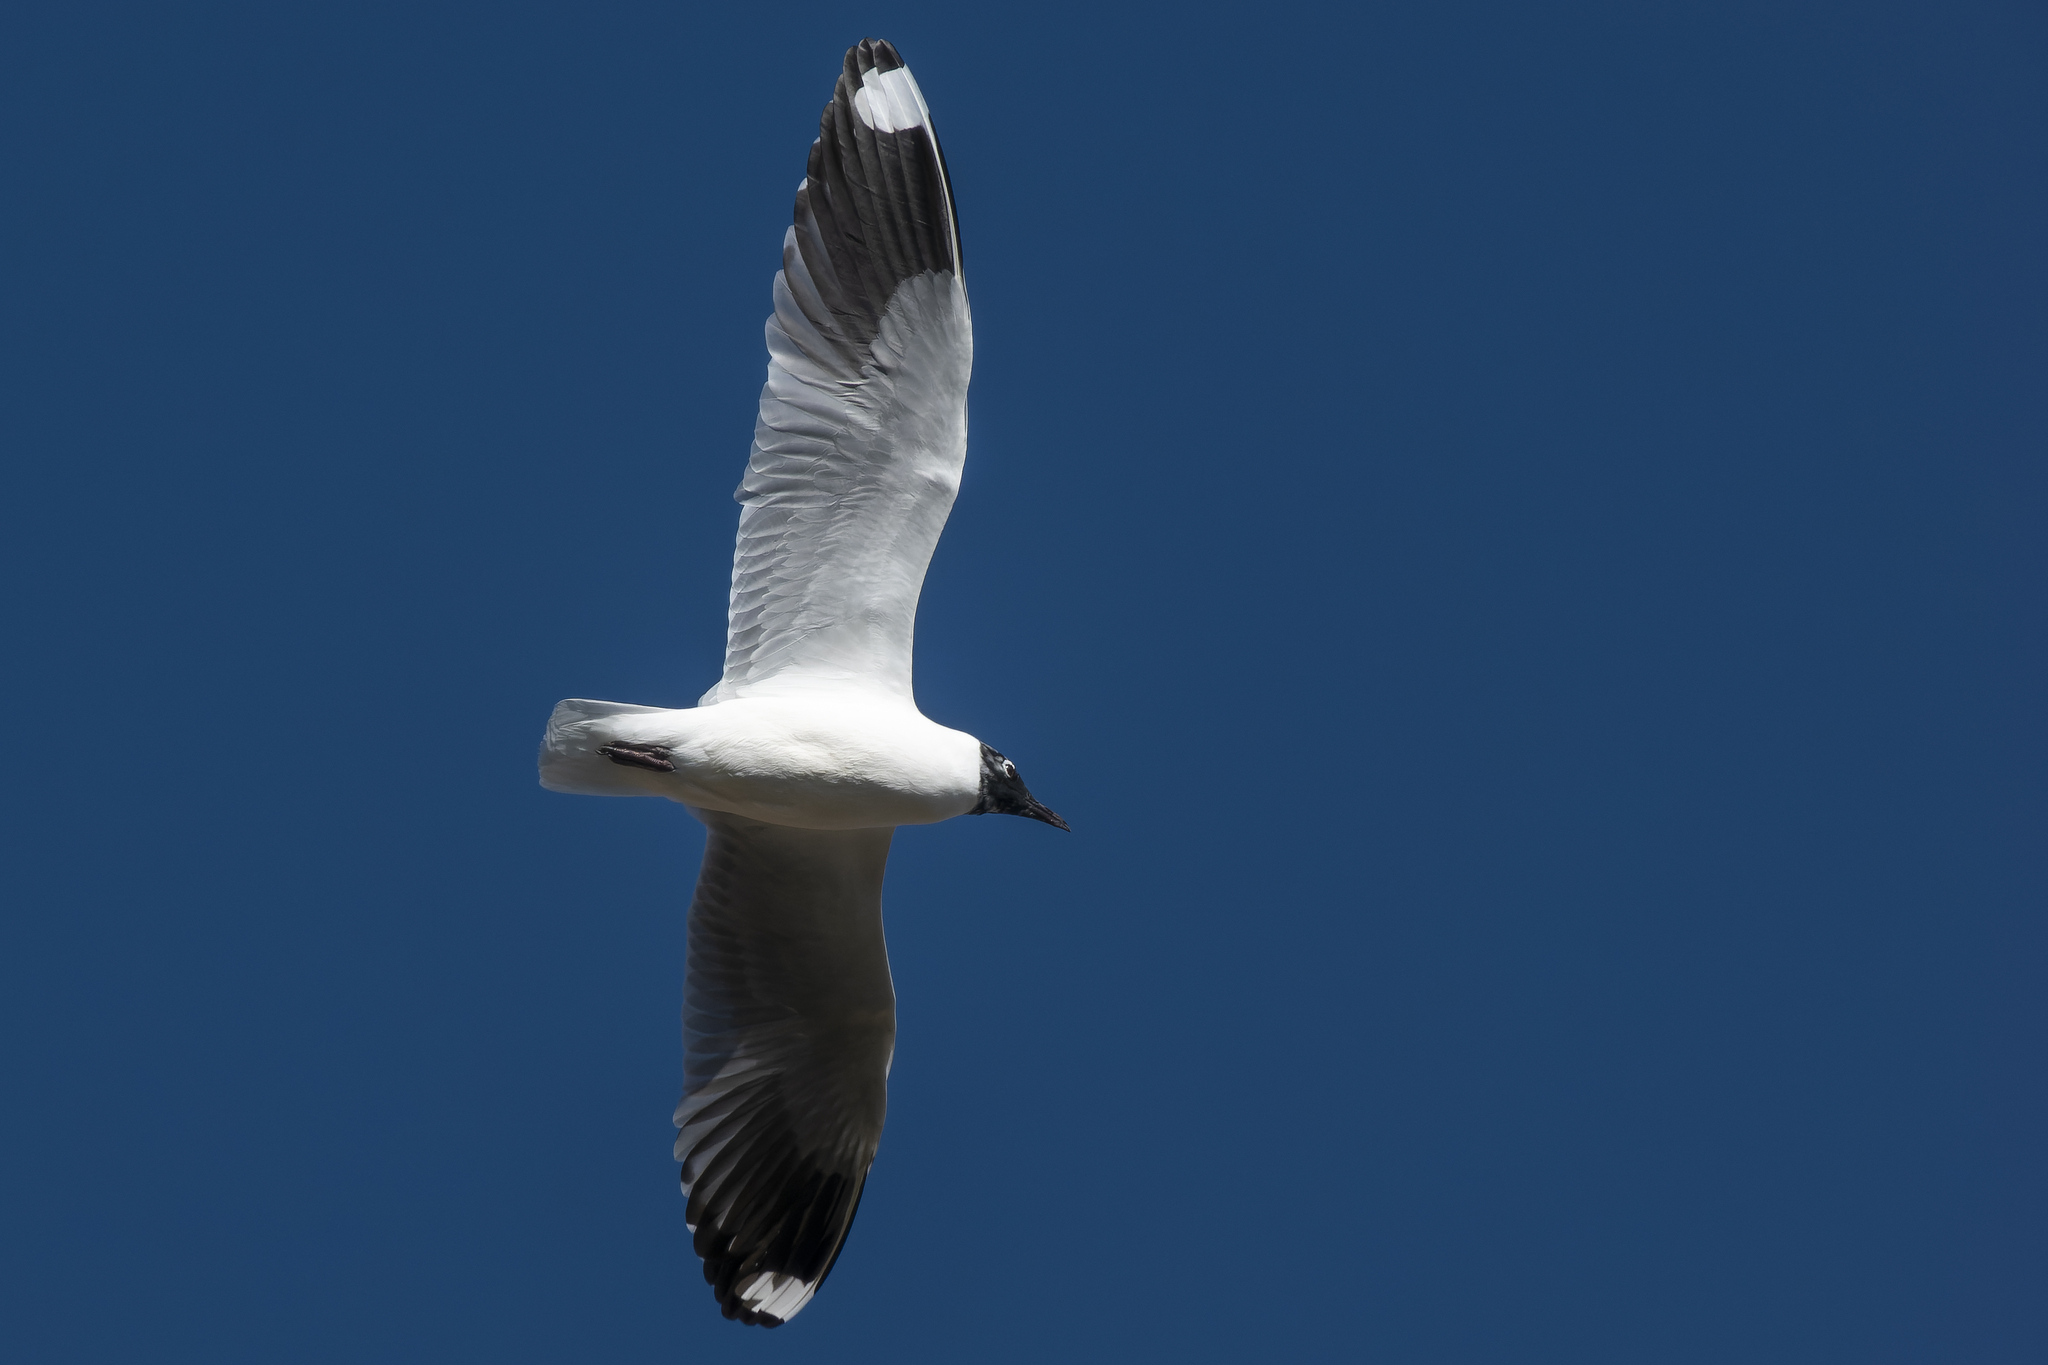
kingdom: Animalia
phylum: Chordata
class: Aves
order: Charadriiformes
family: Laridae
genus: Chroicocephalus
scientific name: Chroicocephalus serranus
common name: Andean gull
